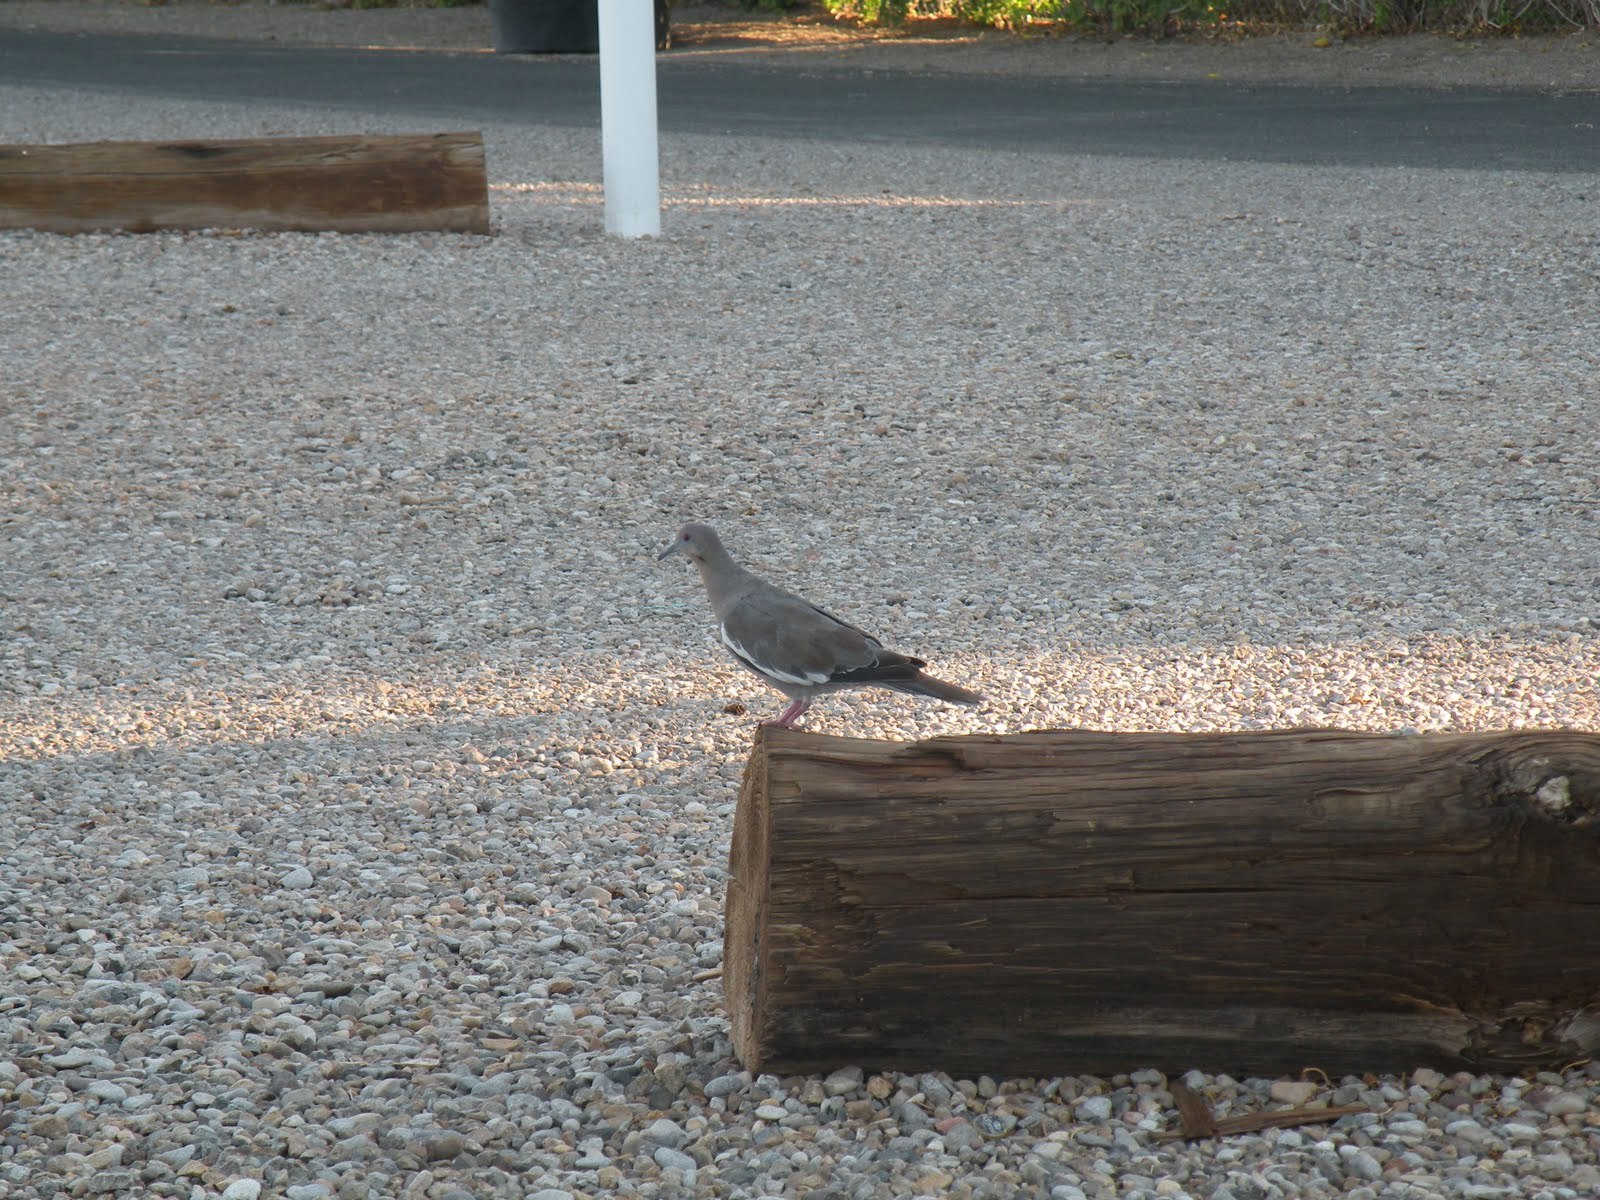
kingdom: Animalia
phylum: Chordata
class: Aves
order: Columbiformes
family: Columbidae
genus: Zenaida
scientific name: Zenaida asiatica
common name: White-winged dove
